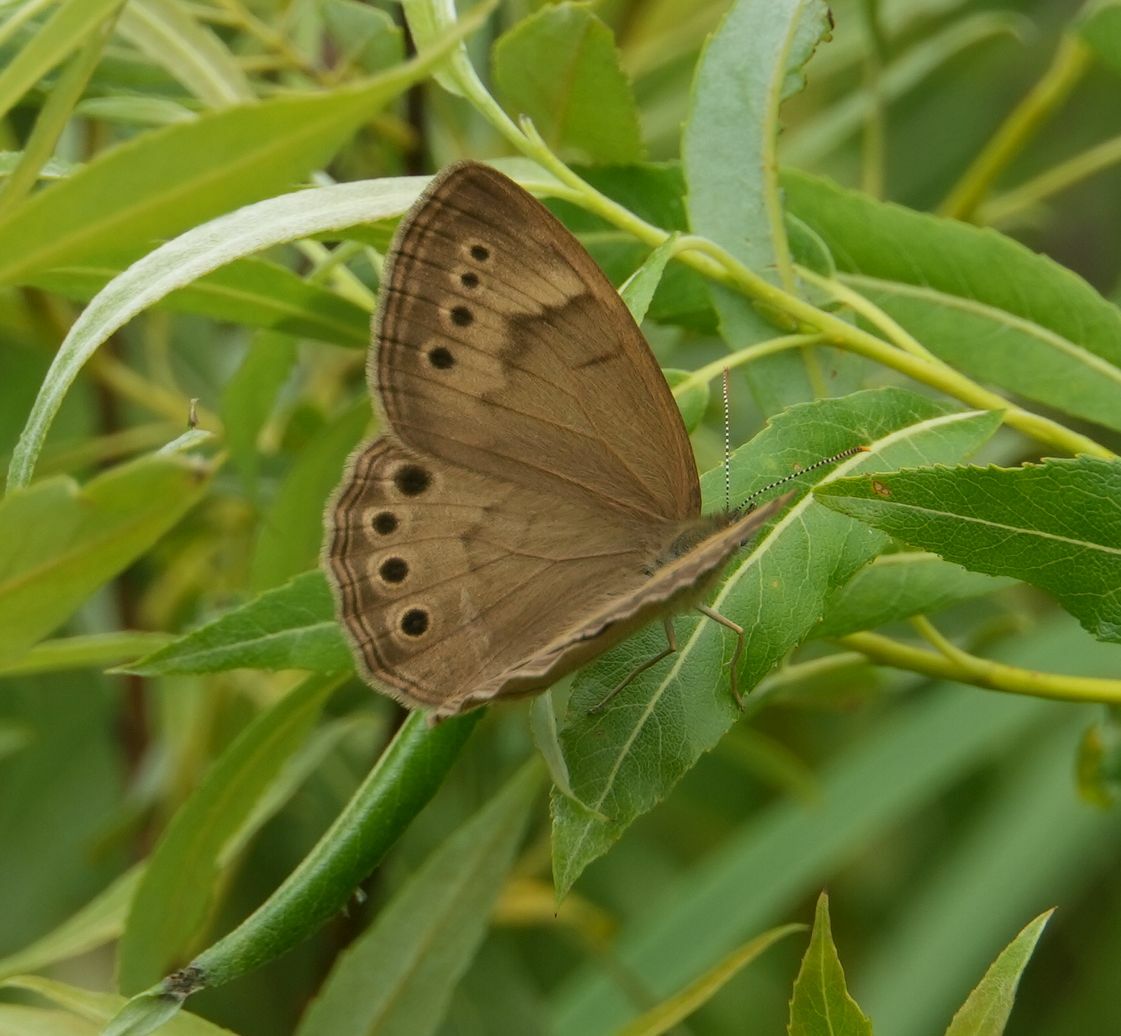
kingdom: Animalia
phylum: Arthropoda
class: Insecta
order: Lepidoptera
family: Nymphalidae
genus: Lethe
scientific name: Lethe eurydice
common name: Eyed brown
